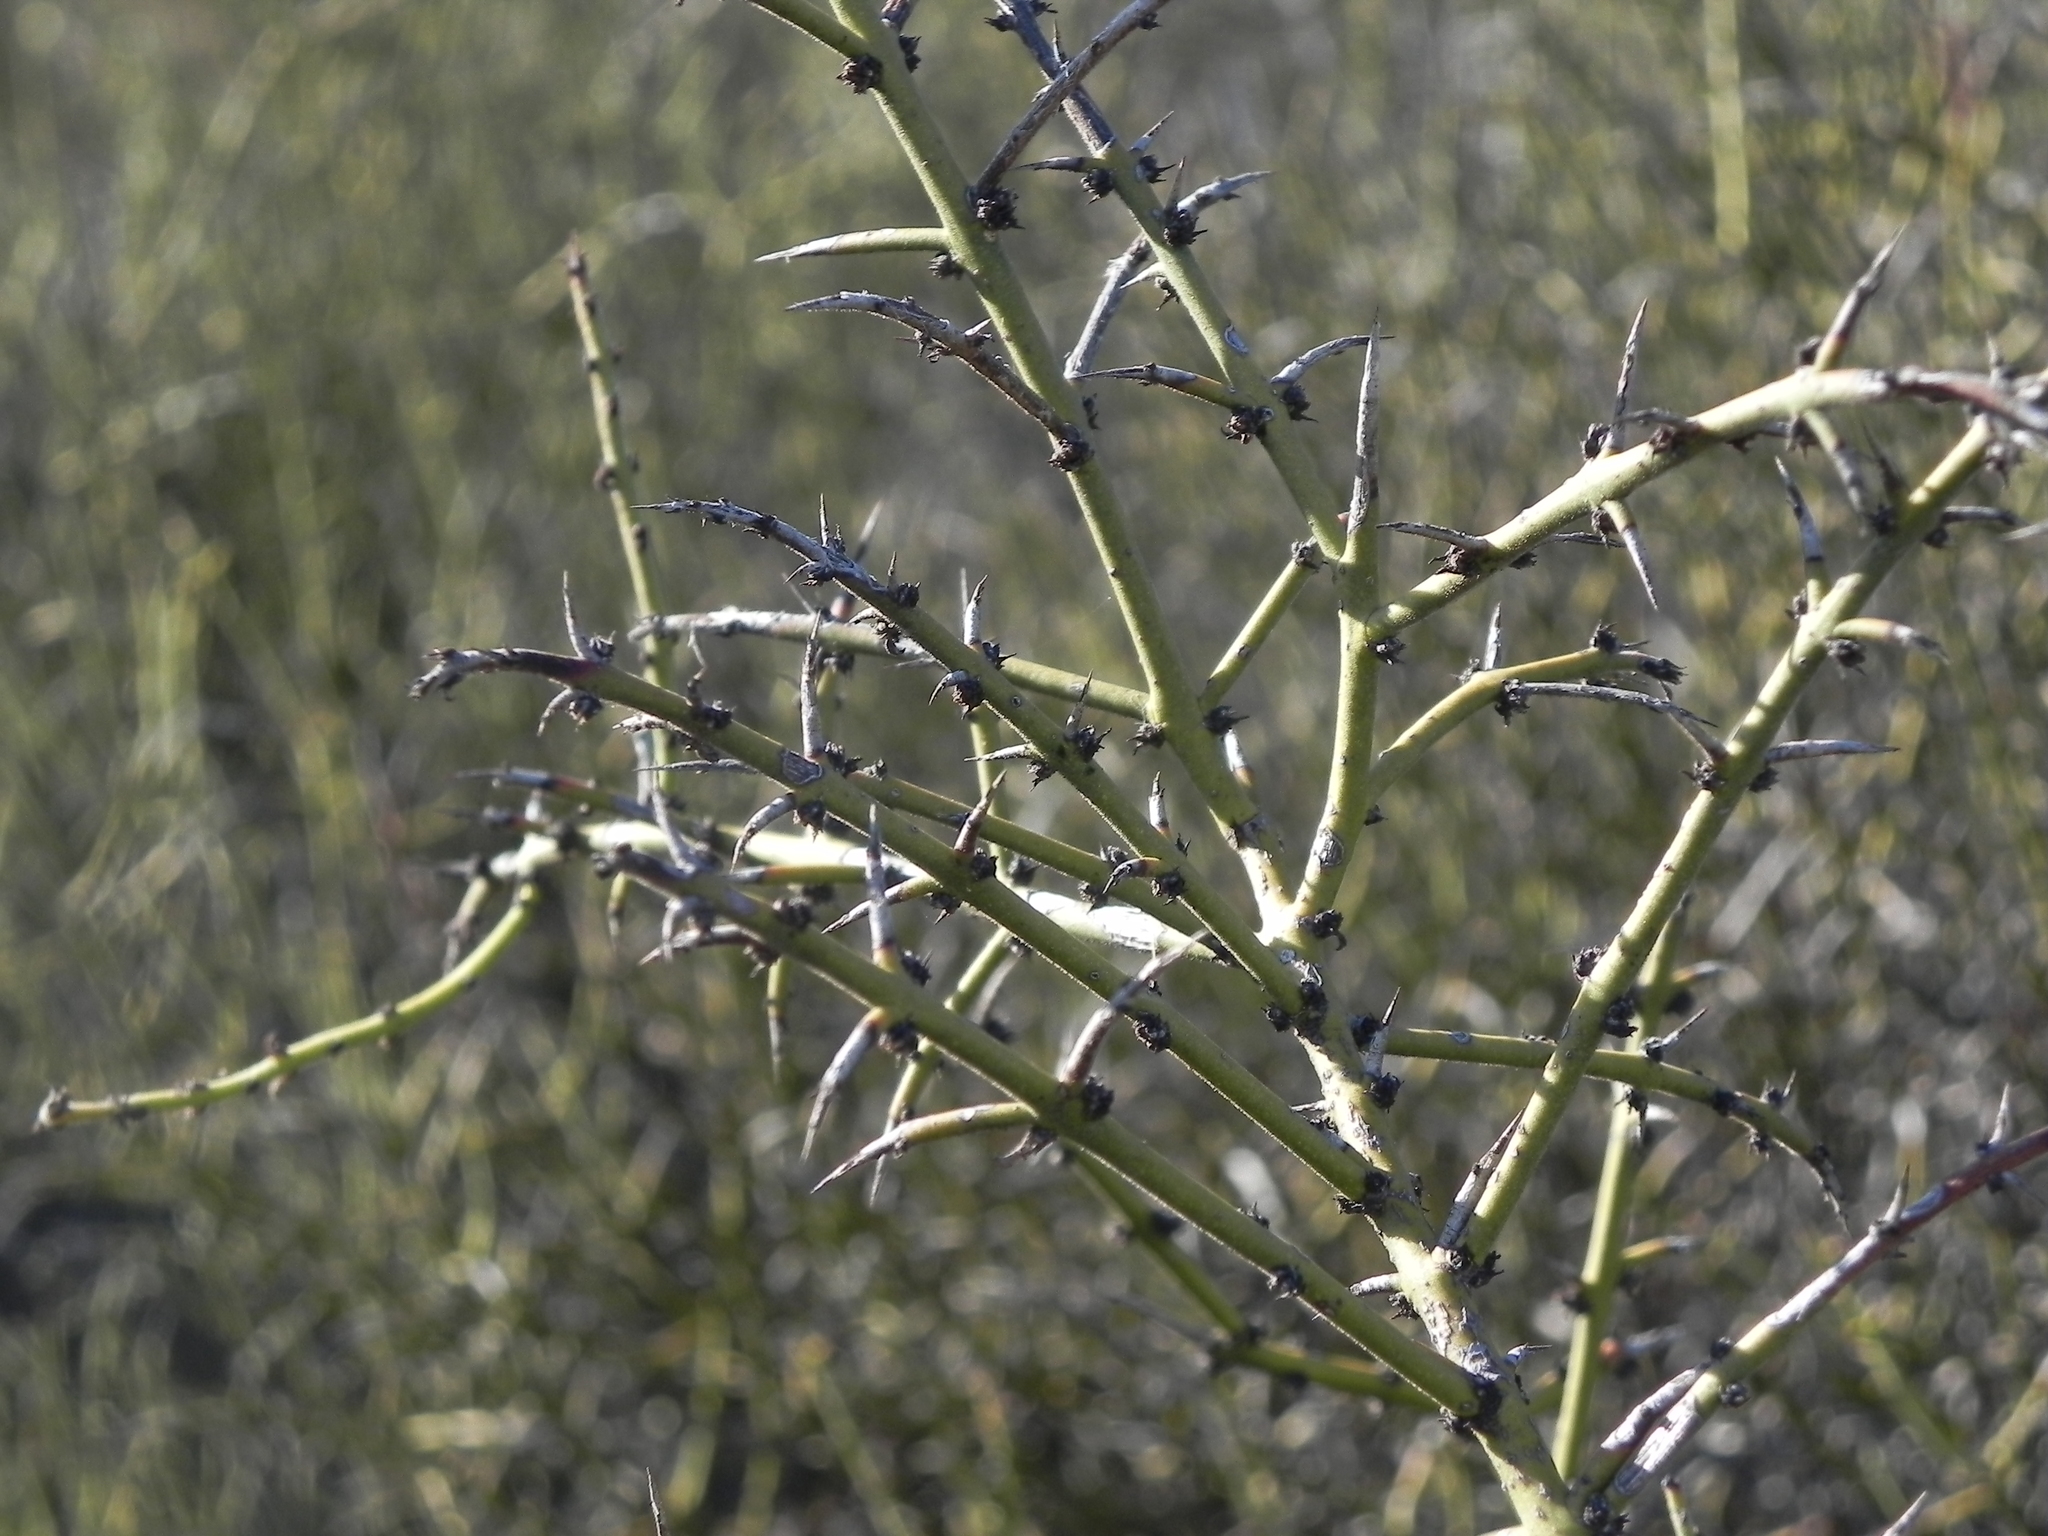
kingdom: Plantae
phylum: Tracheophyta
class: Magnoliopsida
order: Rosales
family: Rhamnaceae
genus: Adolphia
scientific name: Adolphia californica
